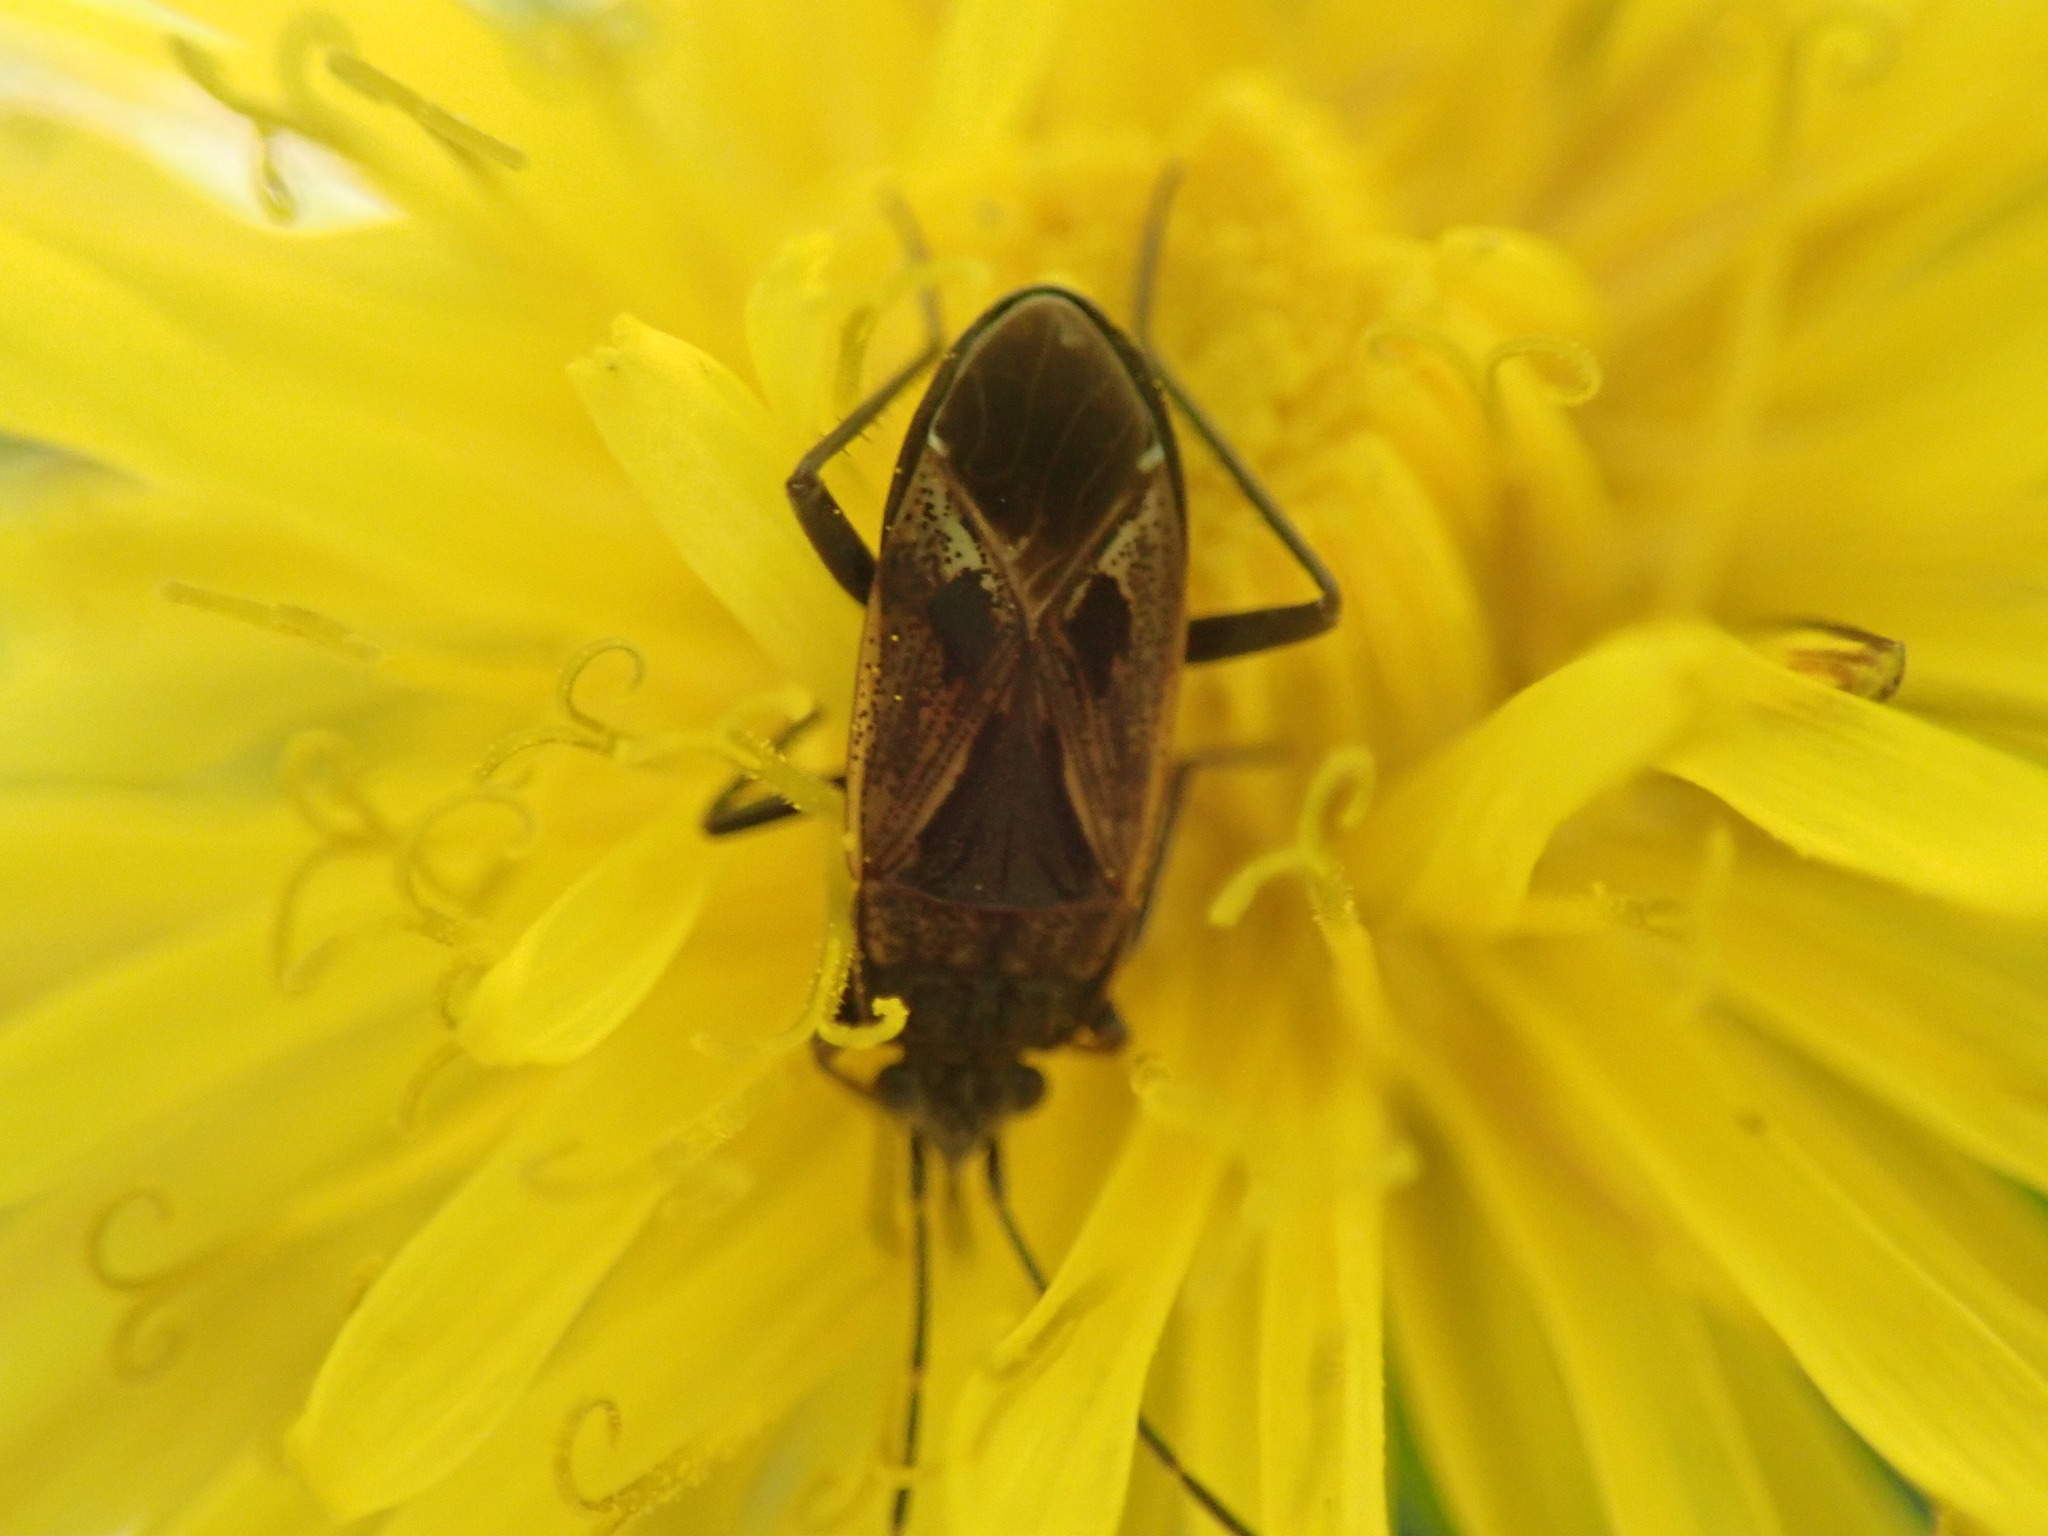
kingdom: Animalia
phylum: Arthropoda
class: Insecta
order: Hemiptera
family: Rhyparochromidae
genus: Rhyparochromus
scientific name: Rhyparochromus pini
